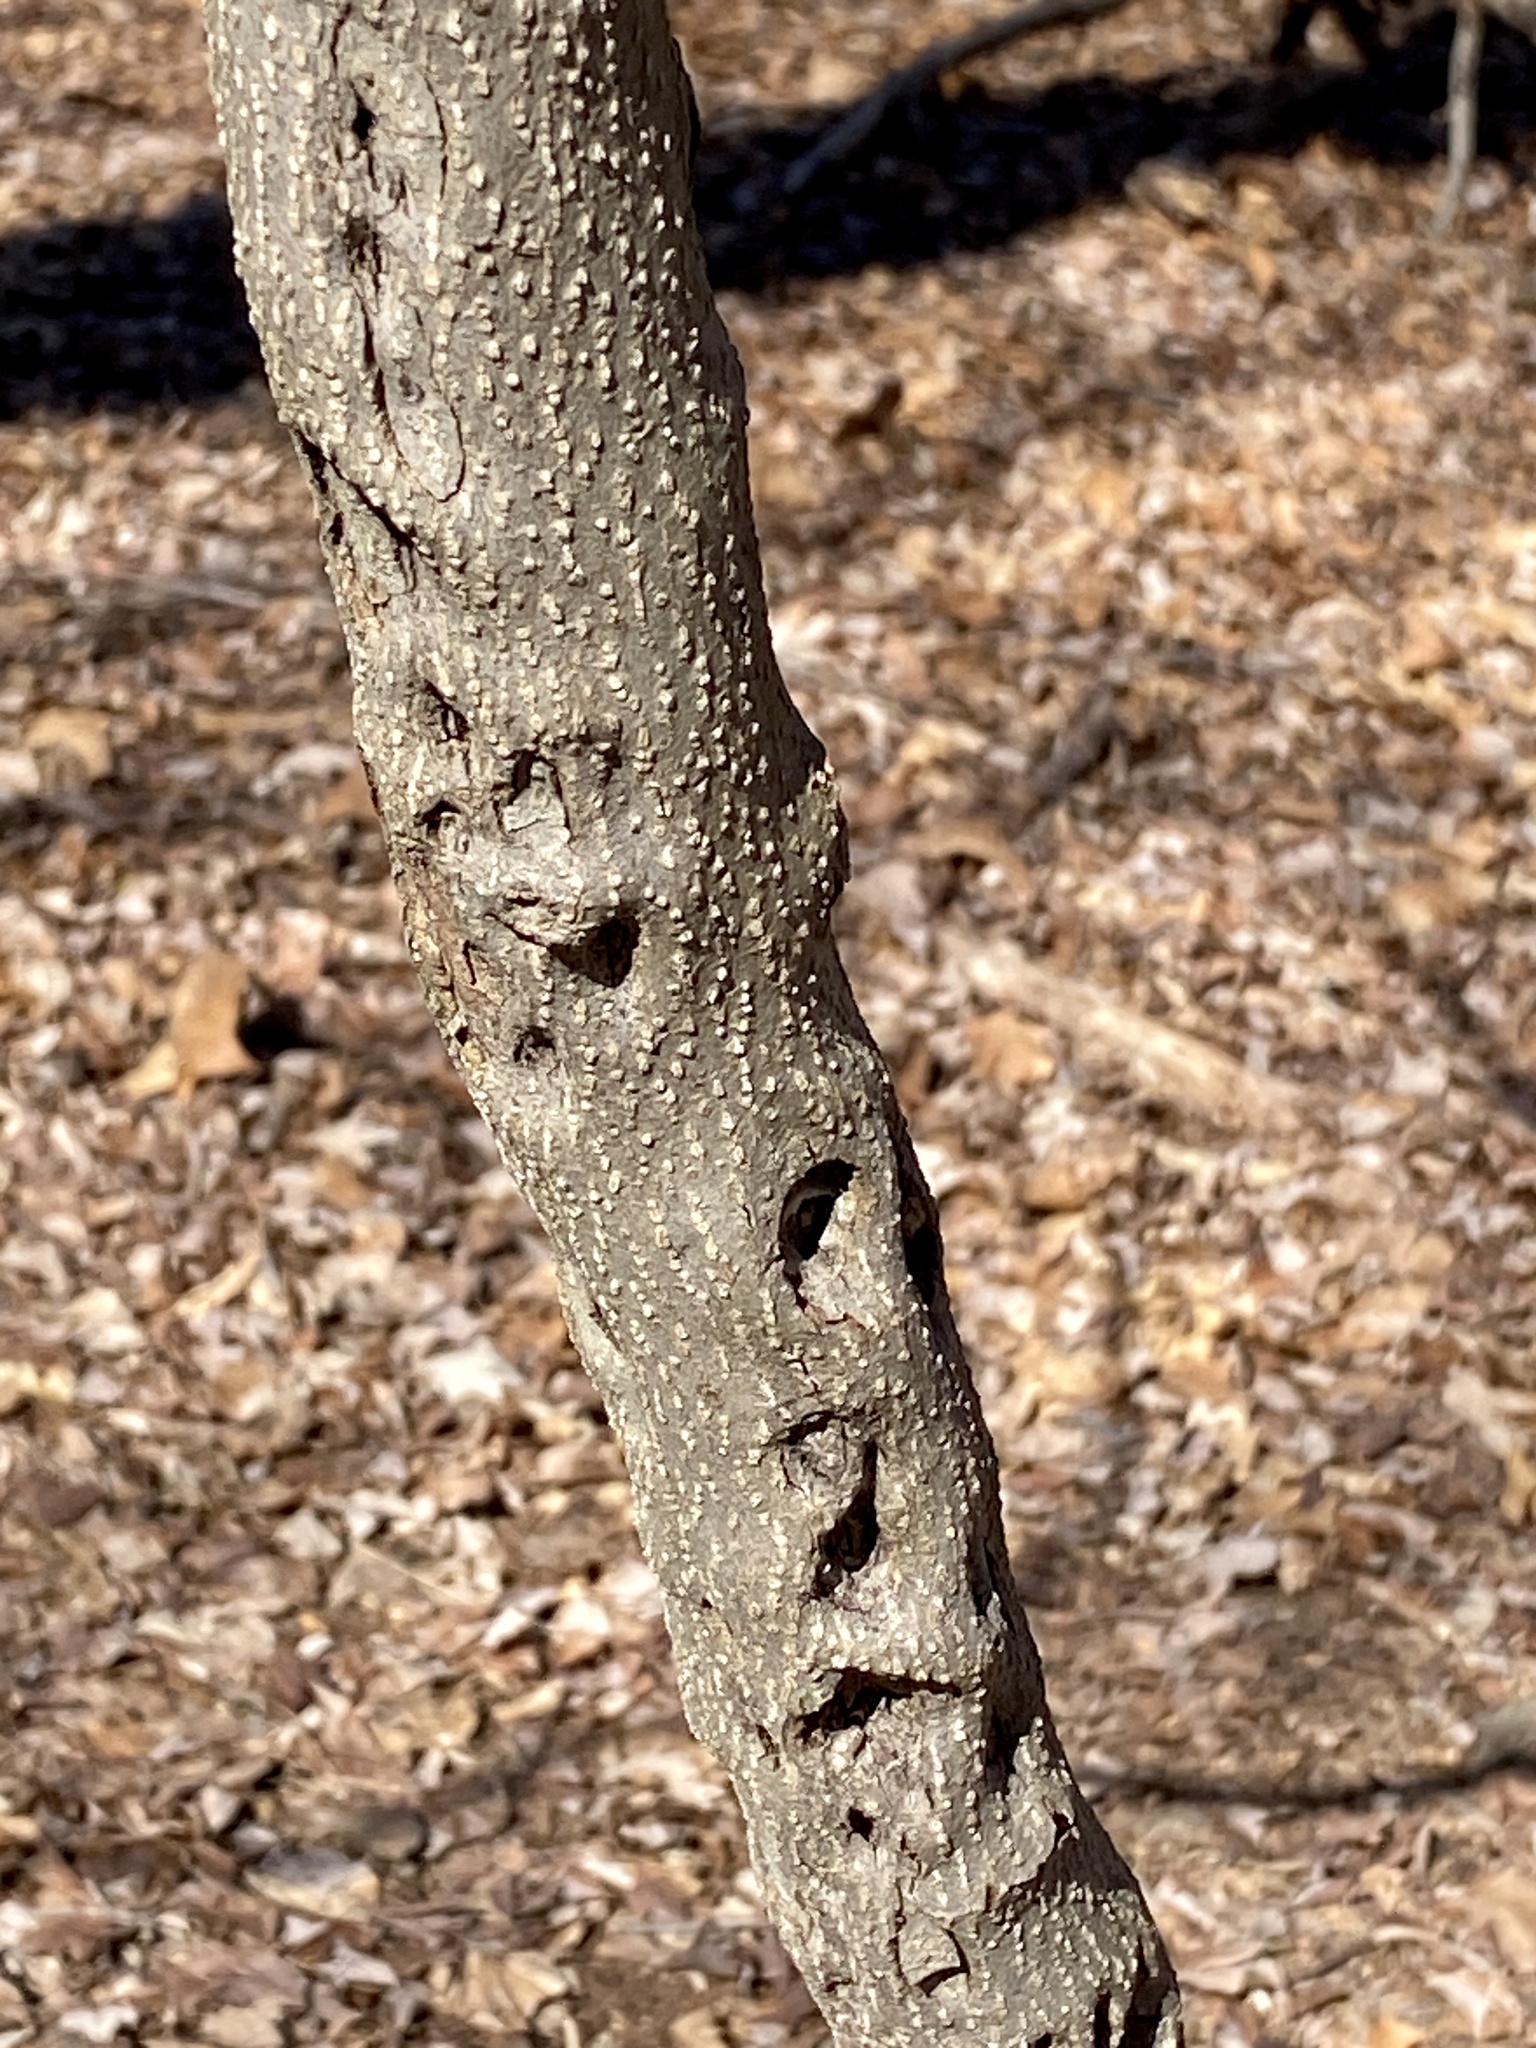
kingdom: Plantae
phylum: Tracheophyta
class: Magnoliopsida
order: Laurales
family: Lauraceae
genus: Lindera
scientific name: Lindera benzoin
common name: Spicebush
